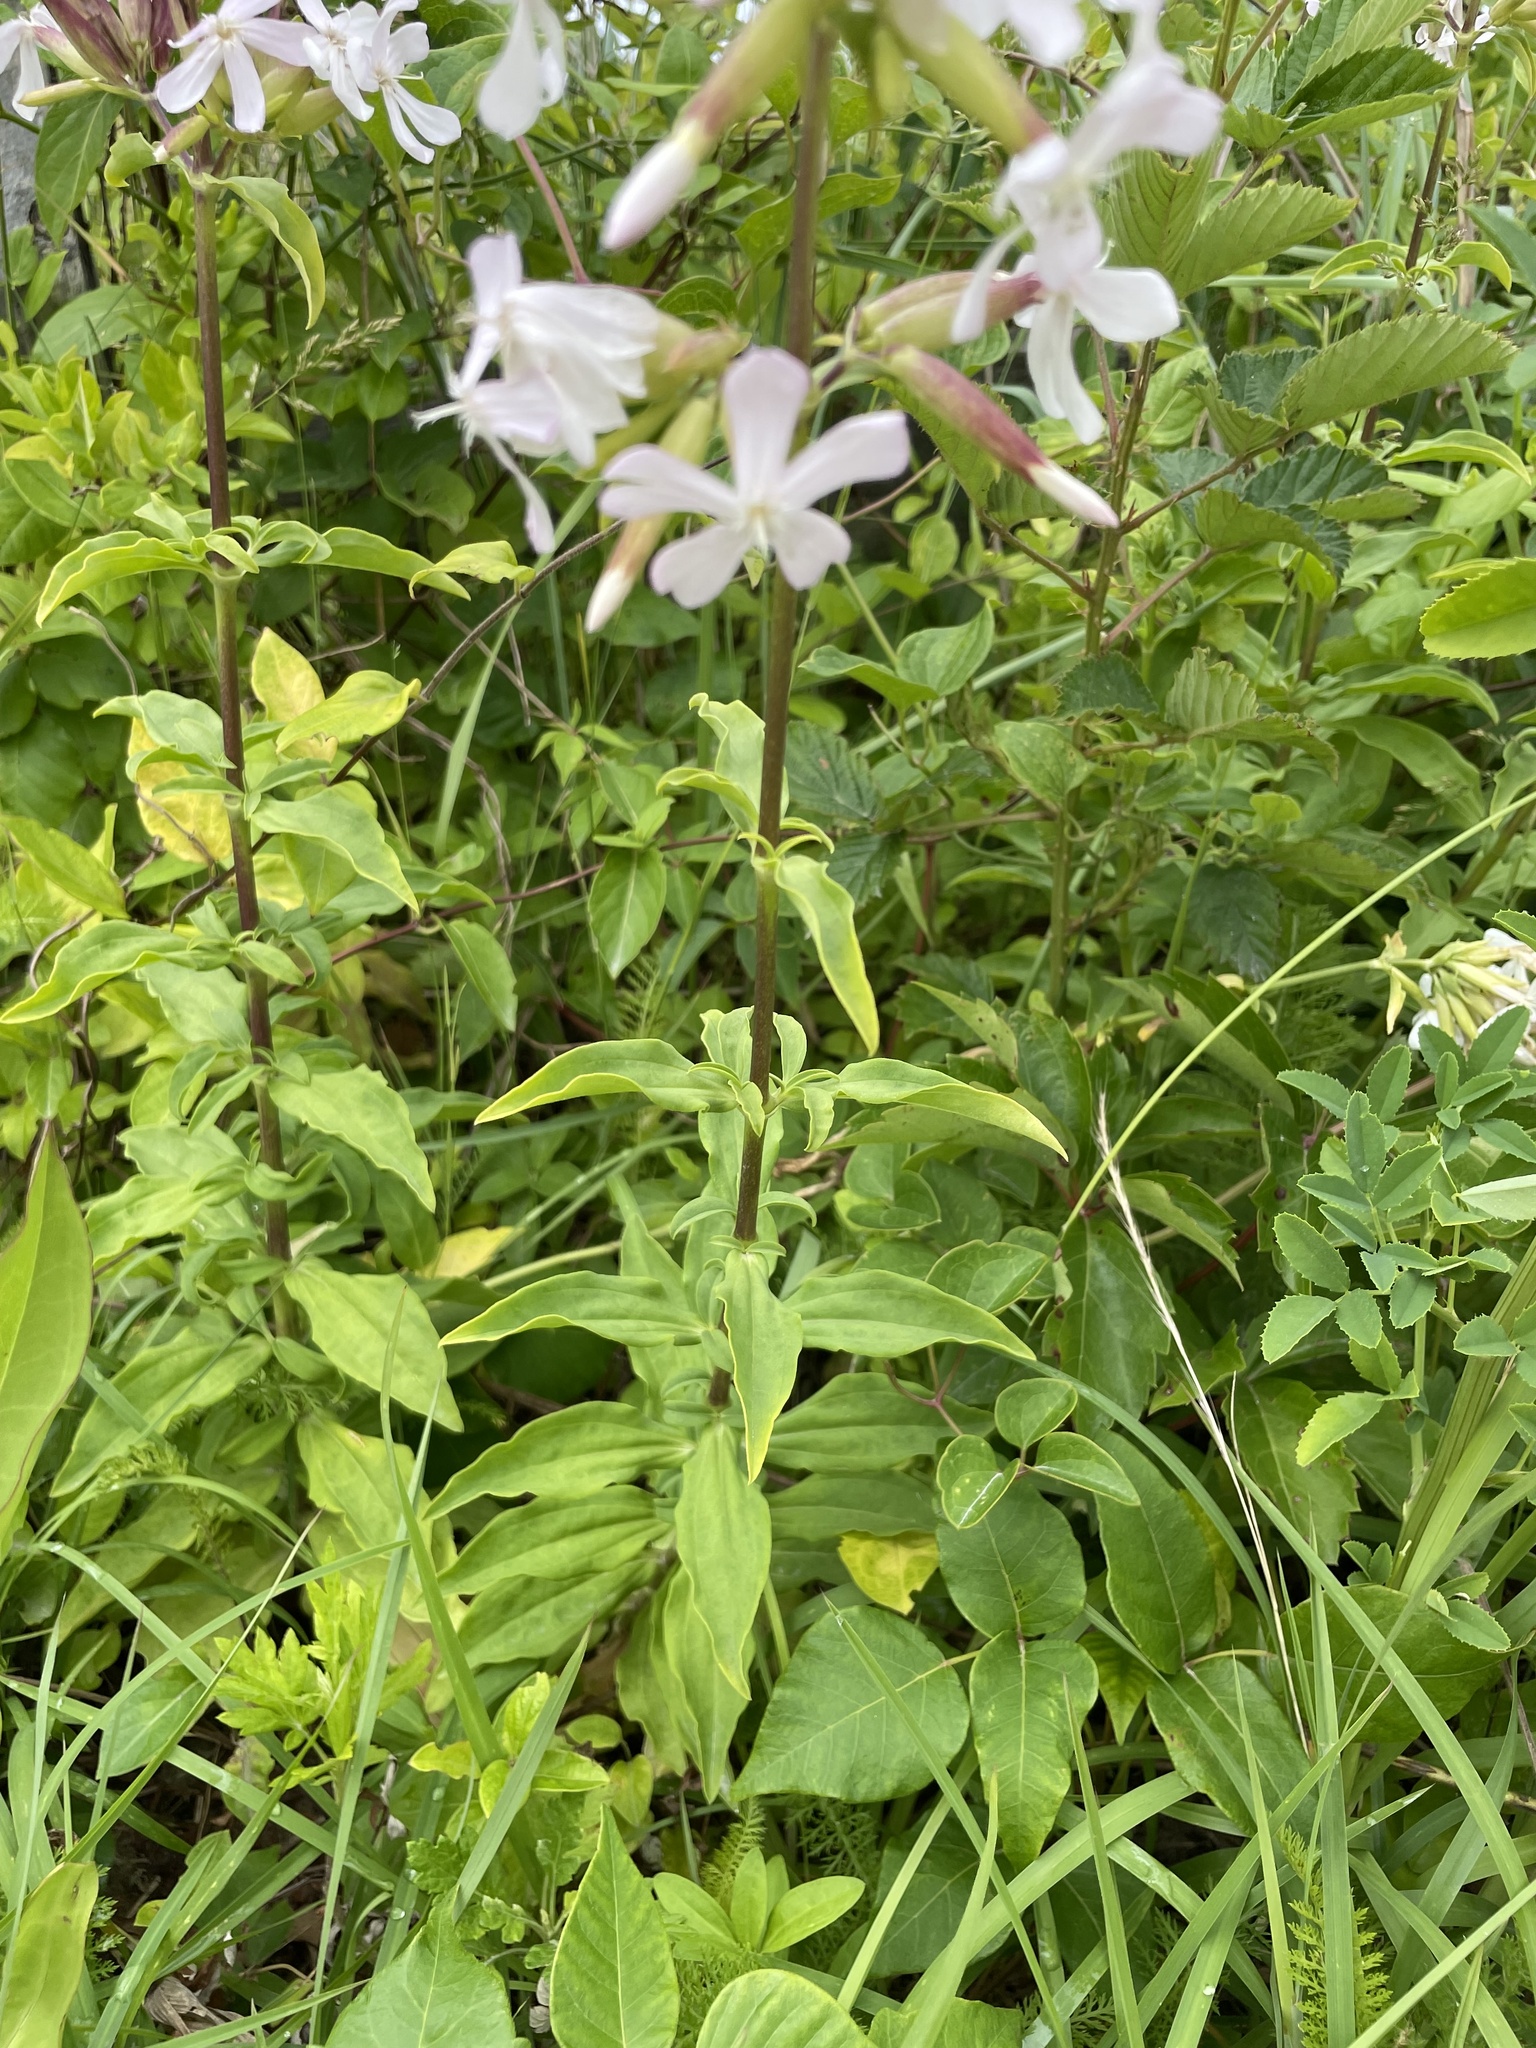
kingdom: Plantae
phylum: Tracheophyta
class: Magnoliopsida
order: Caryophyllales
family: Caryophyllaceae
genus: Saponaria
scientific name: Saponaria officinalis
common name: Soapwort
